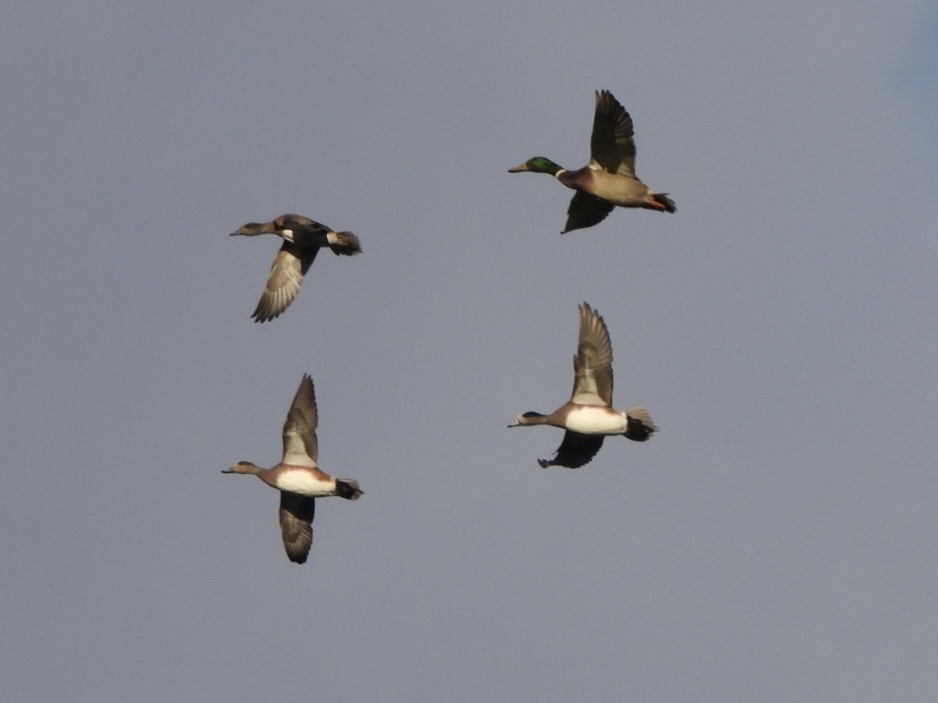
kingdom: Animalia
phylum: Chordata
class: Aves
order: Anseriformes
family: Anatidae
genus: Mareca
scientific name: Mareca americana
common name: American wigeon
